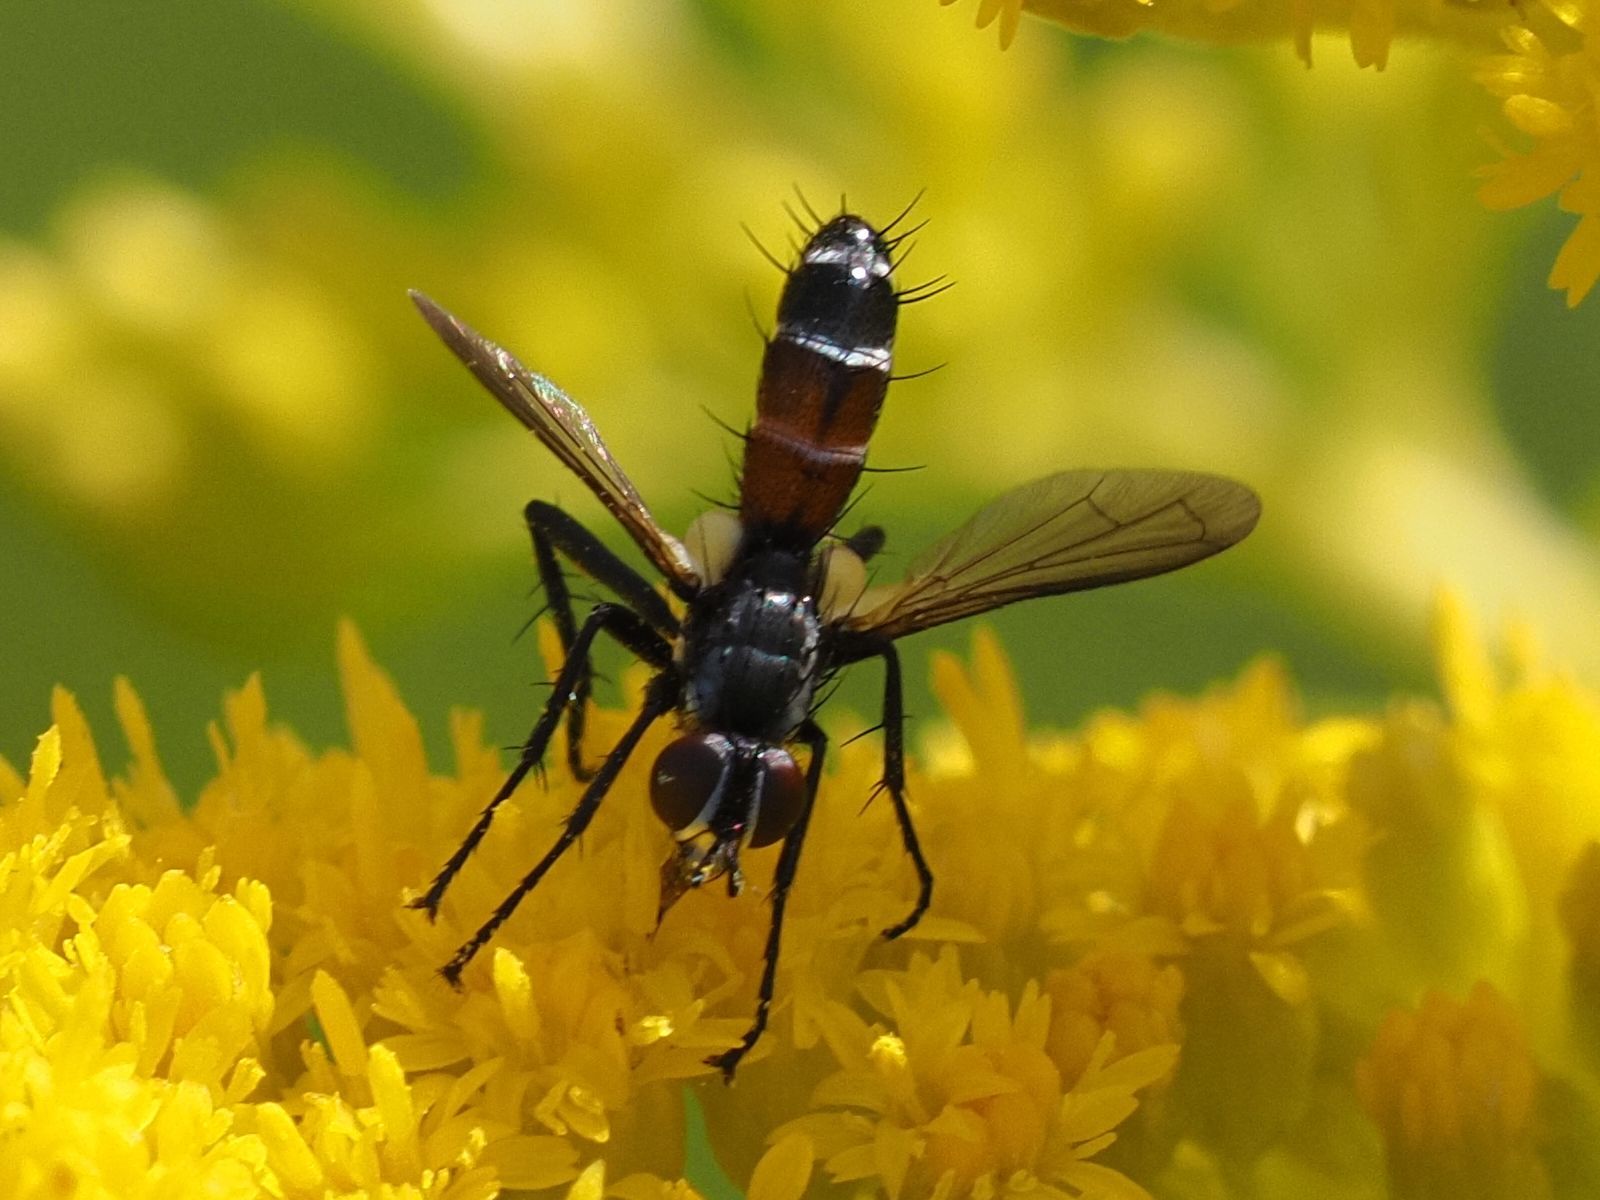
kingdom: Animalia
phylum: Arthropoda
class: Insecta
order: Diptera
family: Tachinidae
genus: Cylindromyia
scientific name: Cylindromyia interrupta
